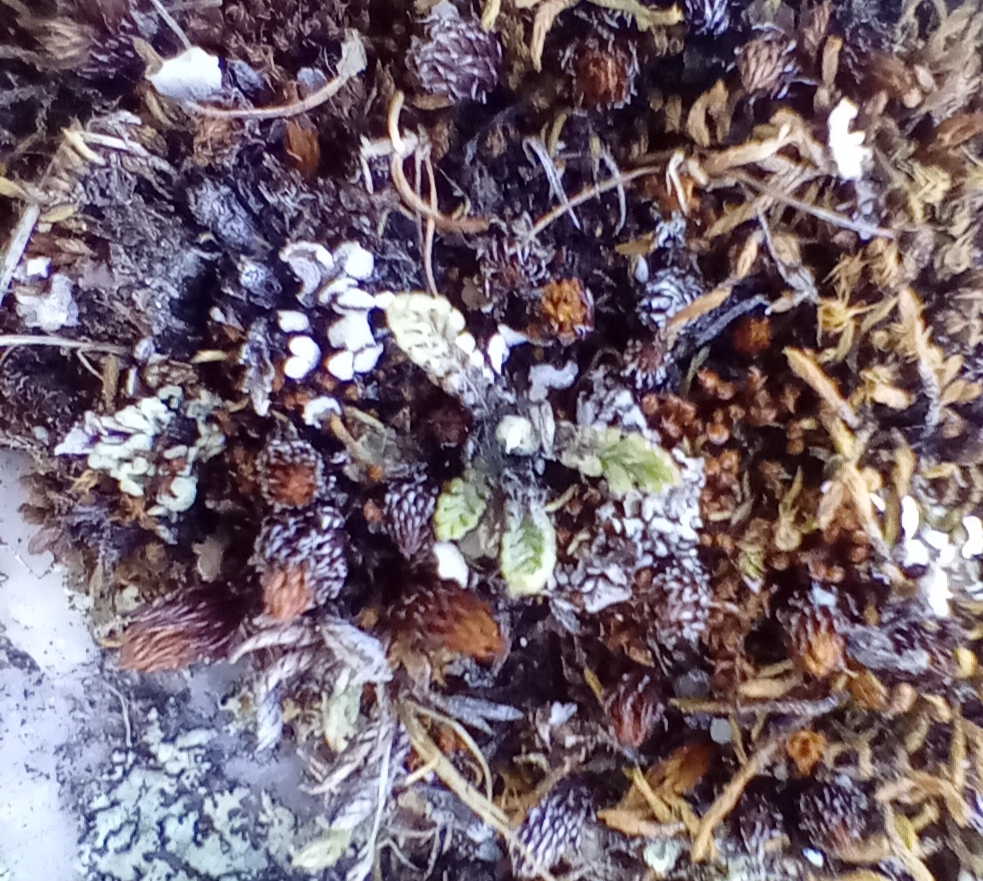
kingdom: Plantae
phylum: Tracheophyta
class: Magnoliopsida
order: Asterales
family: Asteraceae
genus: Leptinella
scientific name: Leptinella conjuncta
